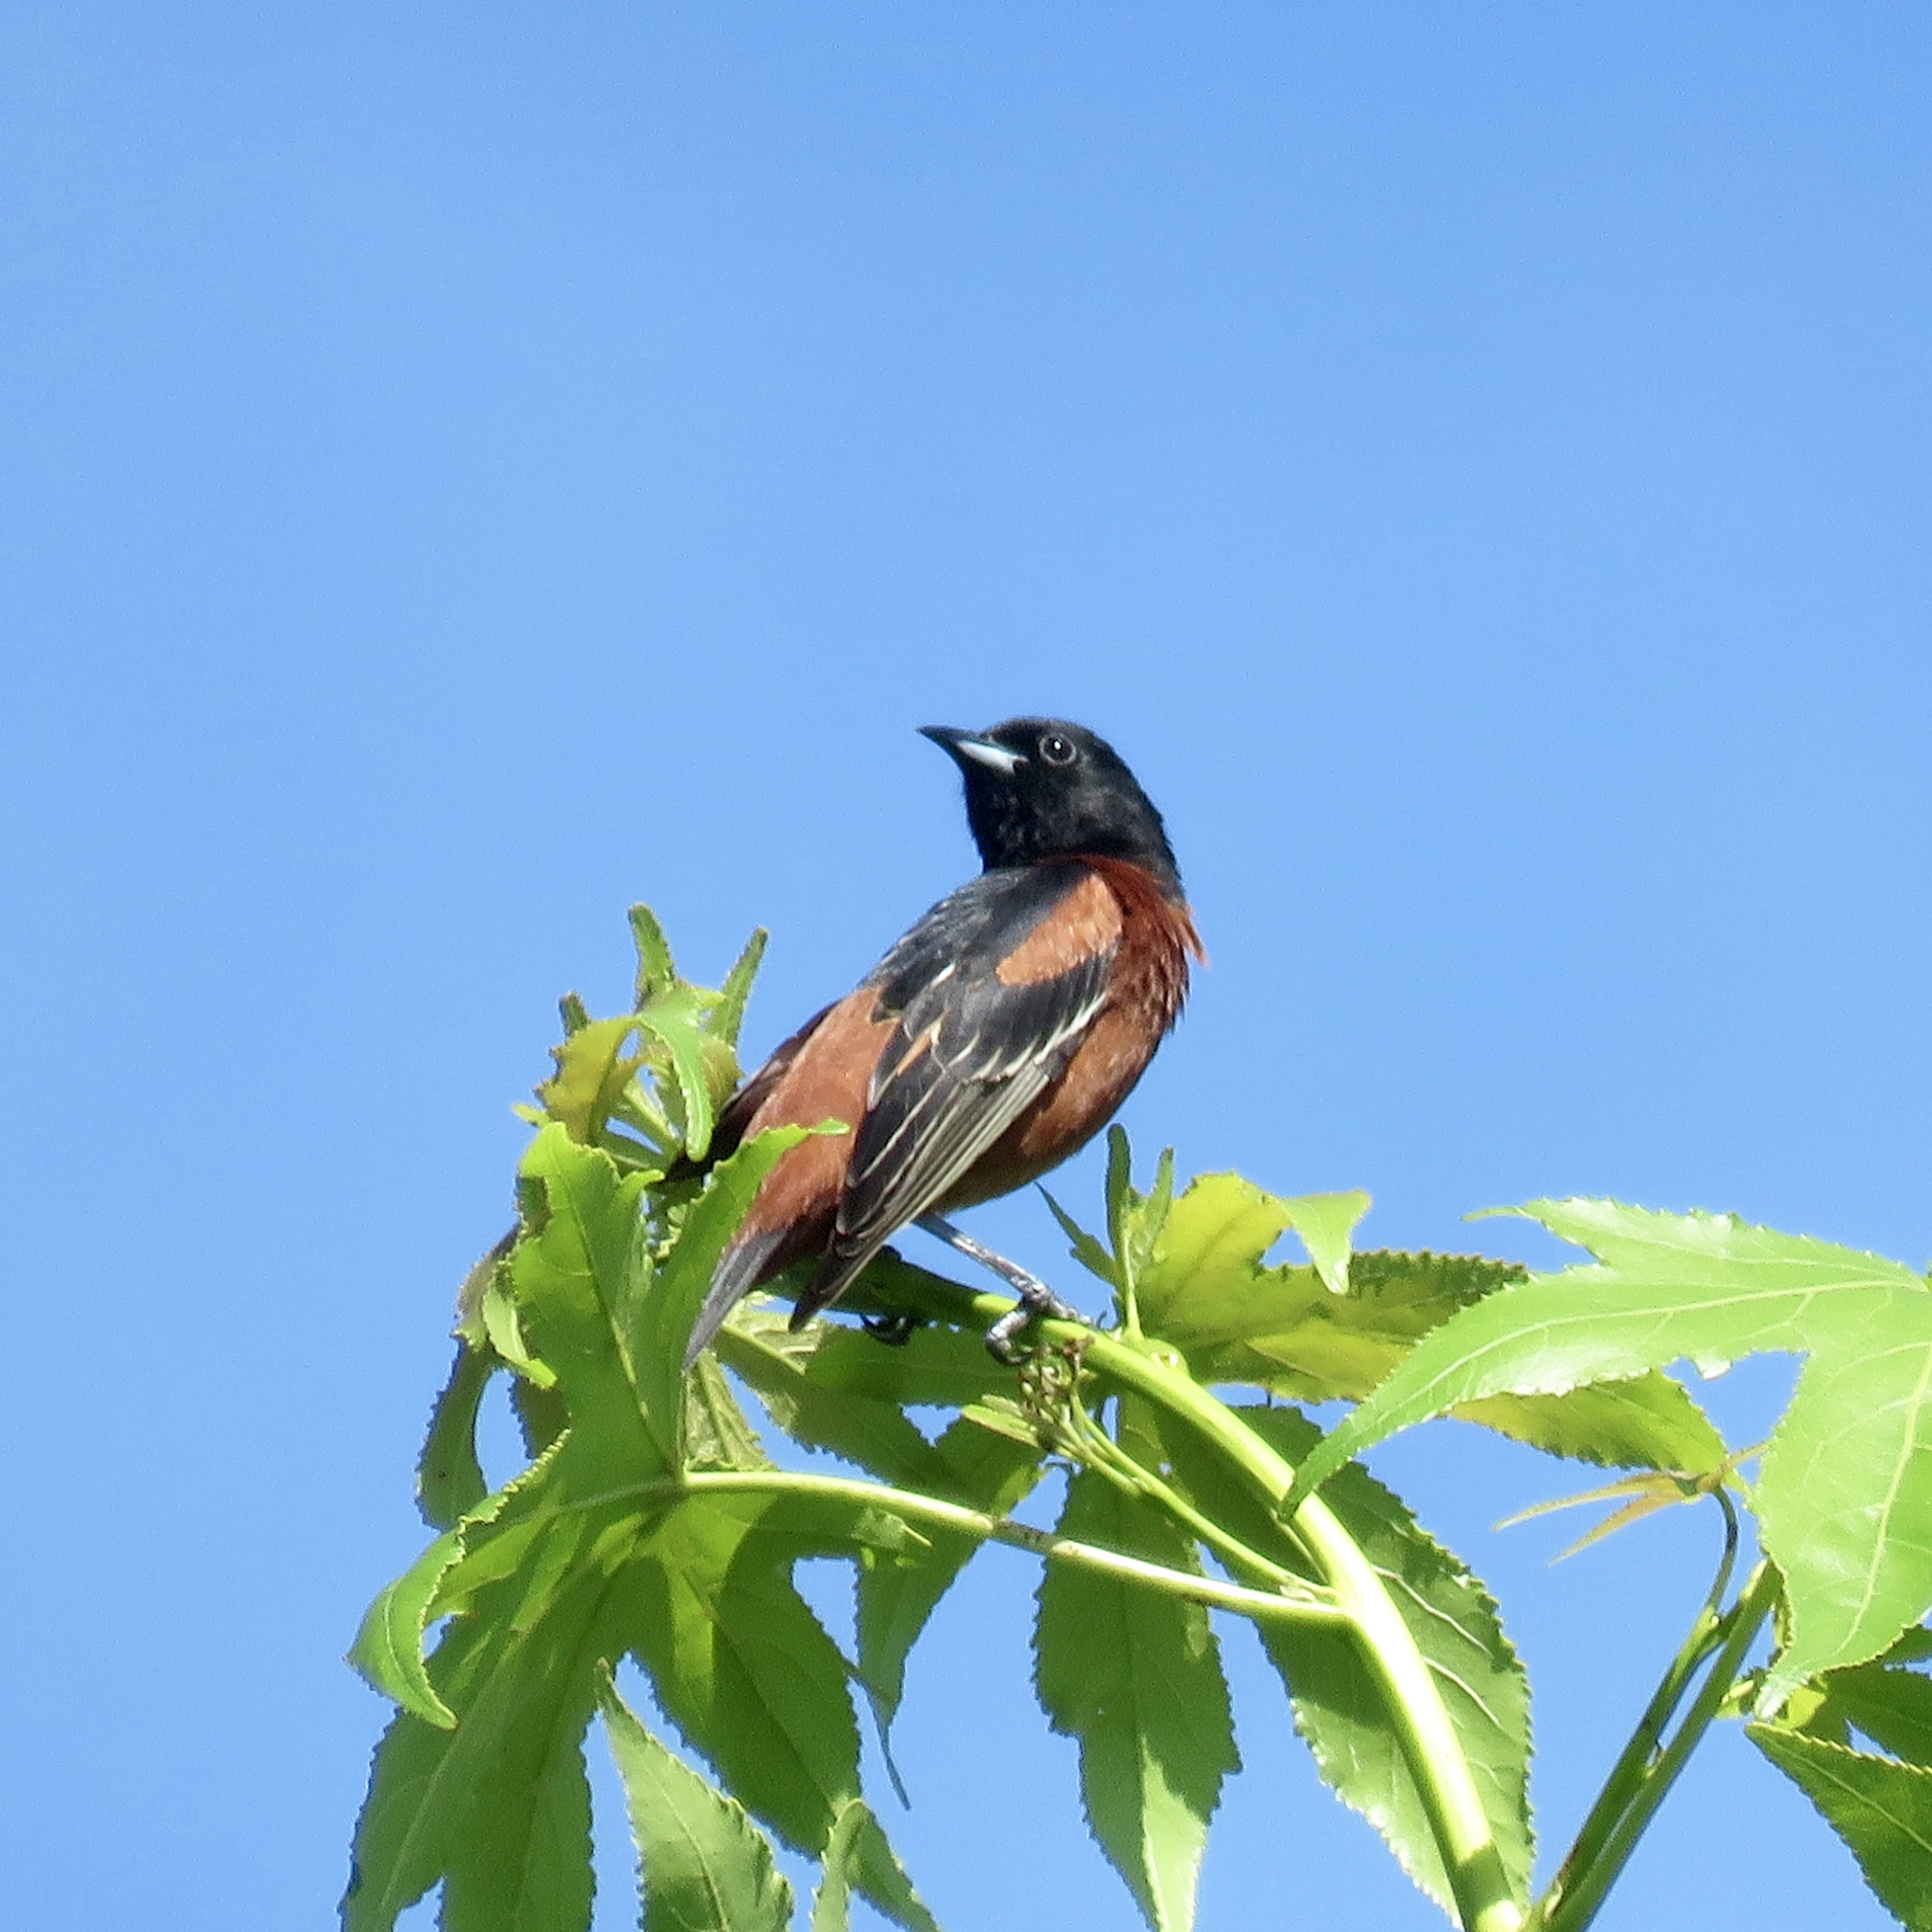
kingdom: Animalia
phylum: Chordata
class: Aves
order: Passeriformes
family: Icteridae
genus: Icterus
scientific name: Icterus spurius
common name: Orchard oriole
